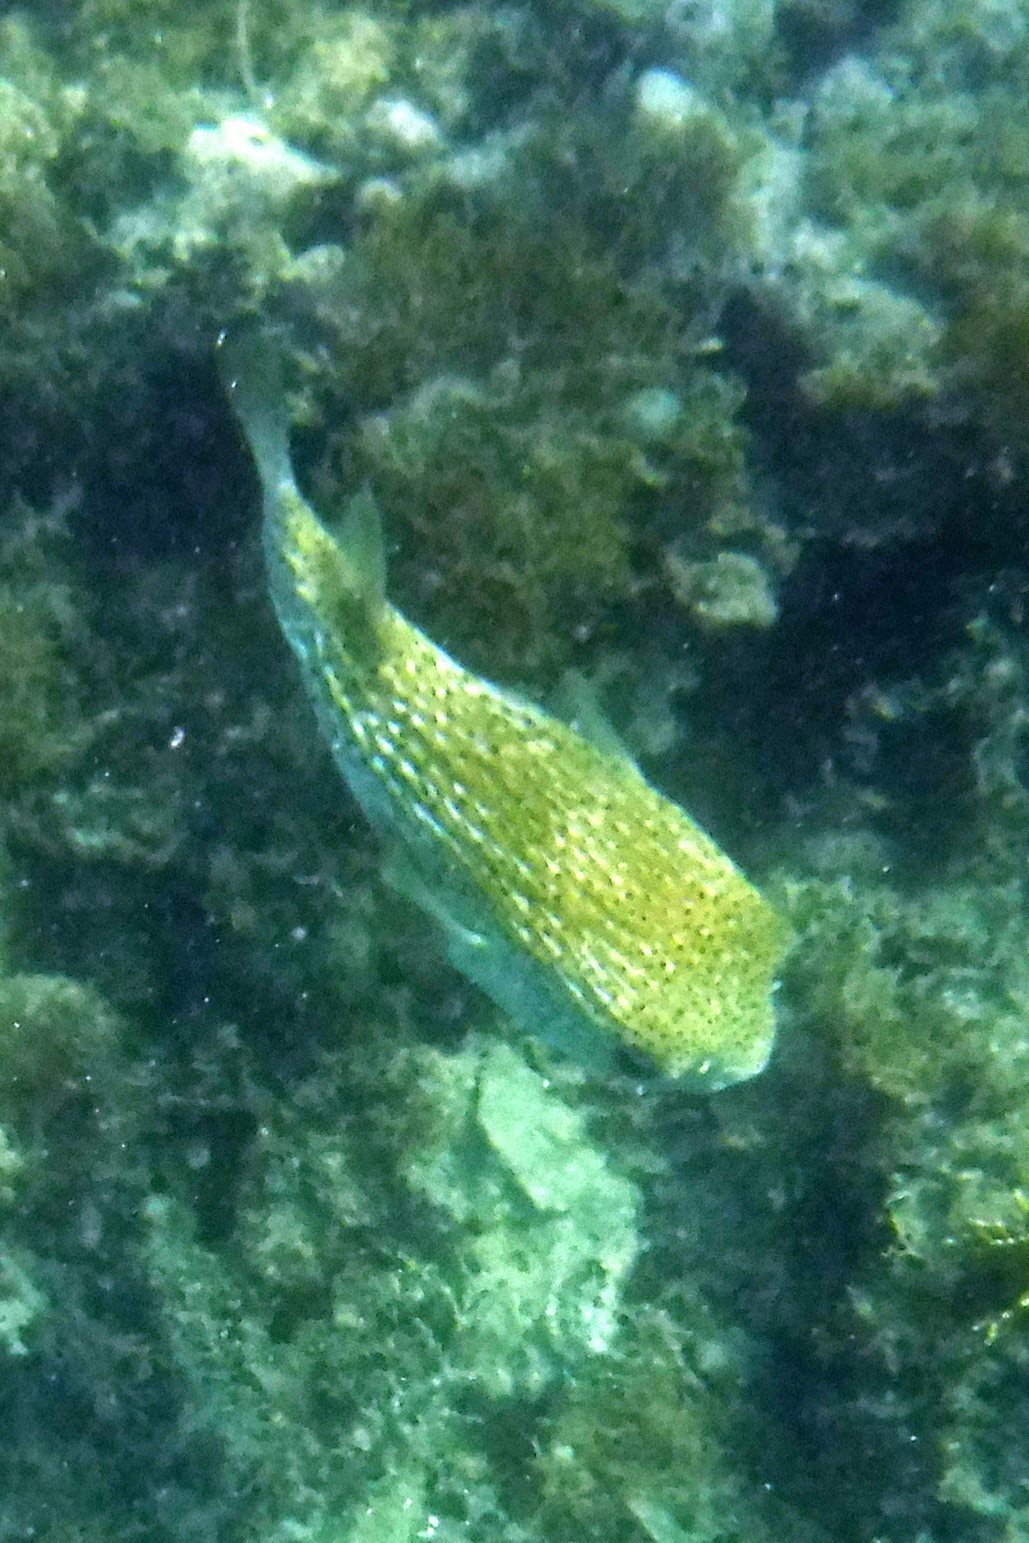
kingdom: Animalia
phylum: Chordata
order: Tetraodontiformes
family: Diodontidae
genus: Diodon
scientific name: Diodon hystrix
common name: Giant porcupinefish
